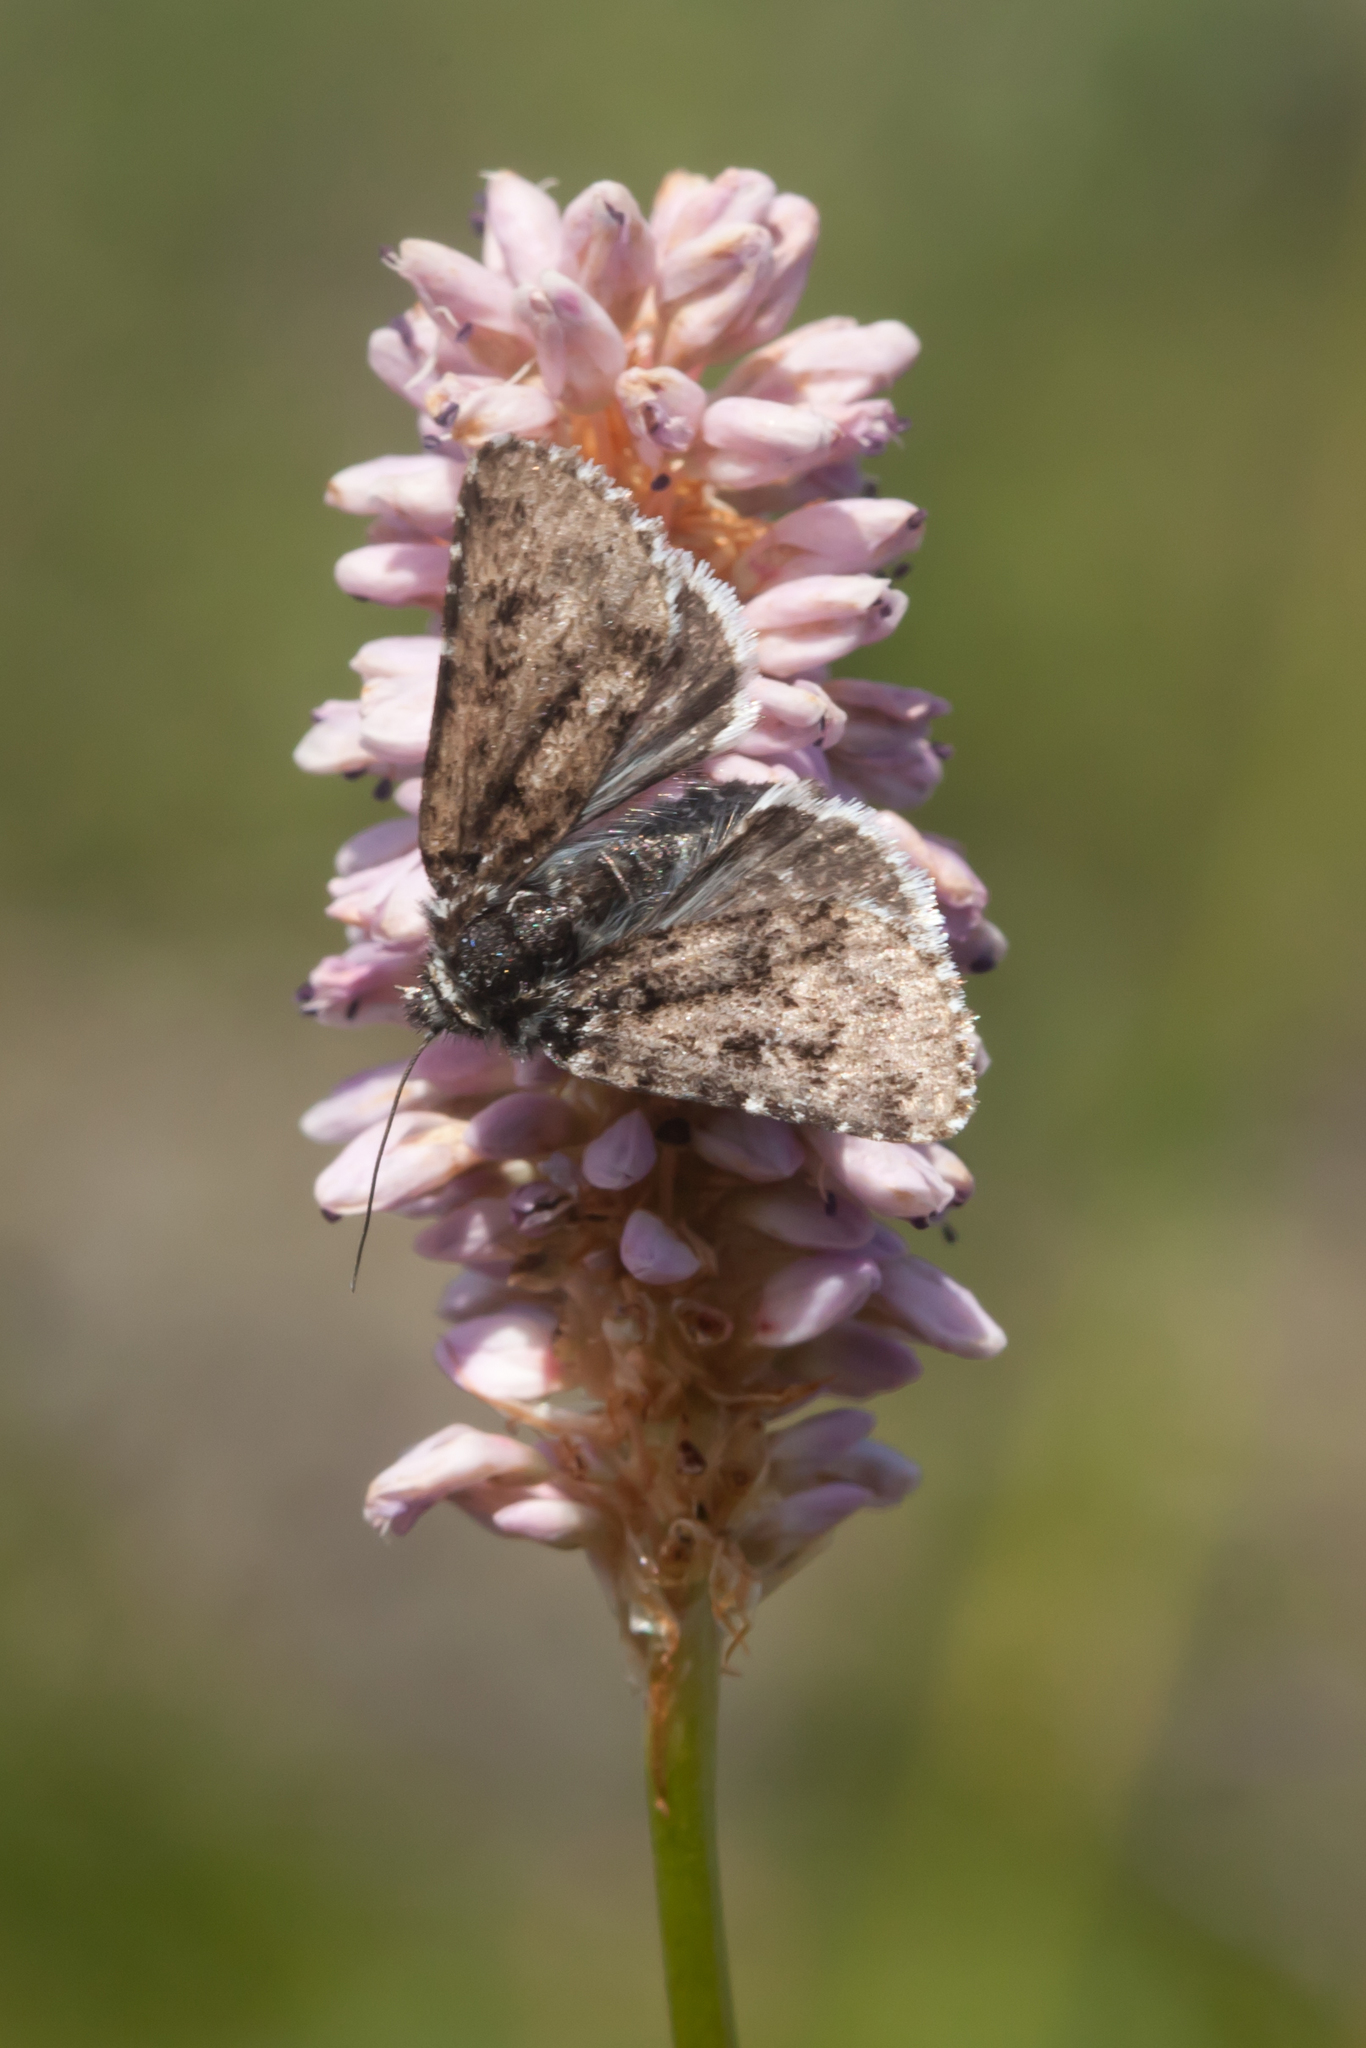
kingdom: Animalia
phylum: Arthropoda
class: Insecta
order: Lepidoptera
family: Noctuidae
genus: Sympistis
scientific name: Sympistis lapponica
